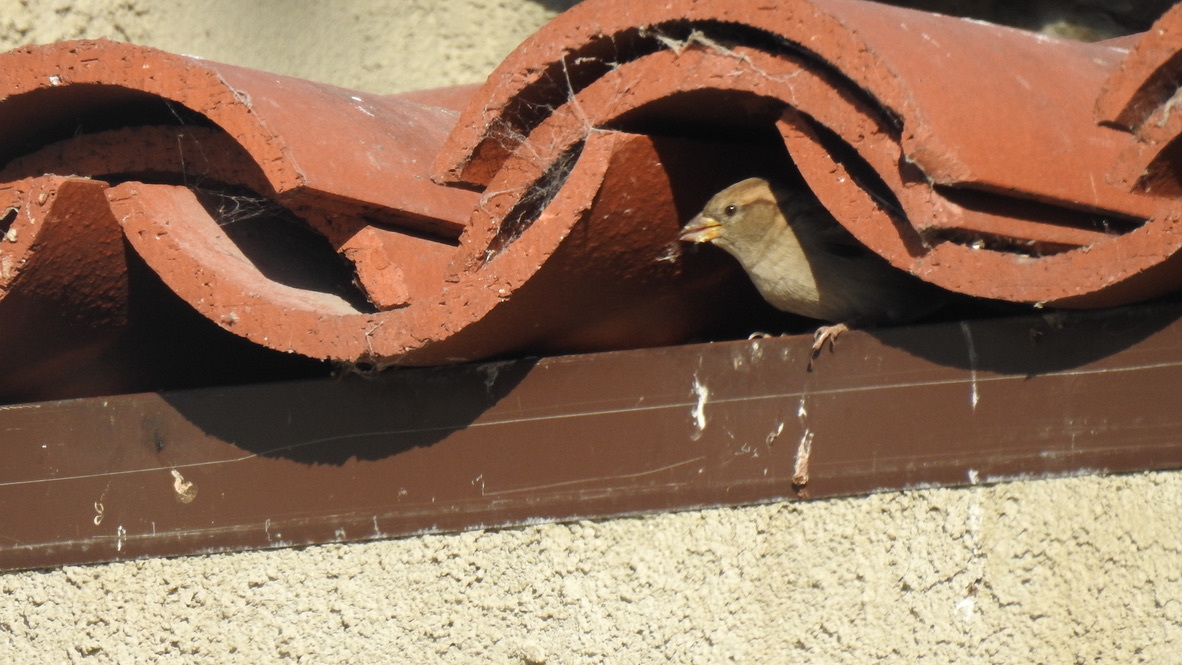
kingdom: Animalia
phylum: Chordata
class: Aves
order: Passeriformes
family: Passeridae
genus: Passer
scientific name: Passer domesticus
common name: House sparrow
